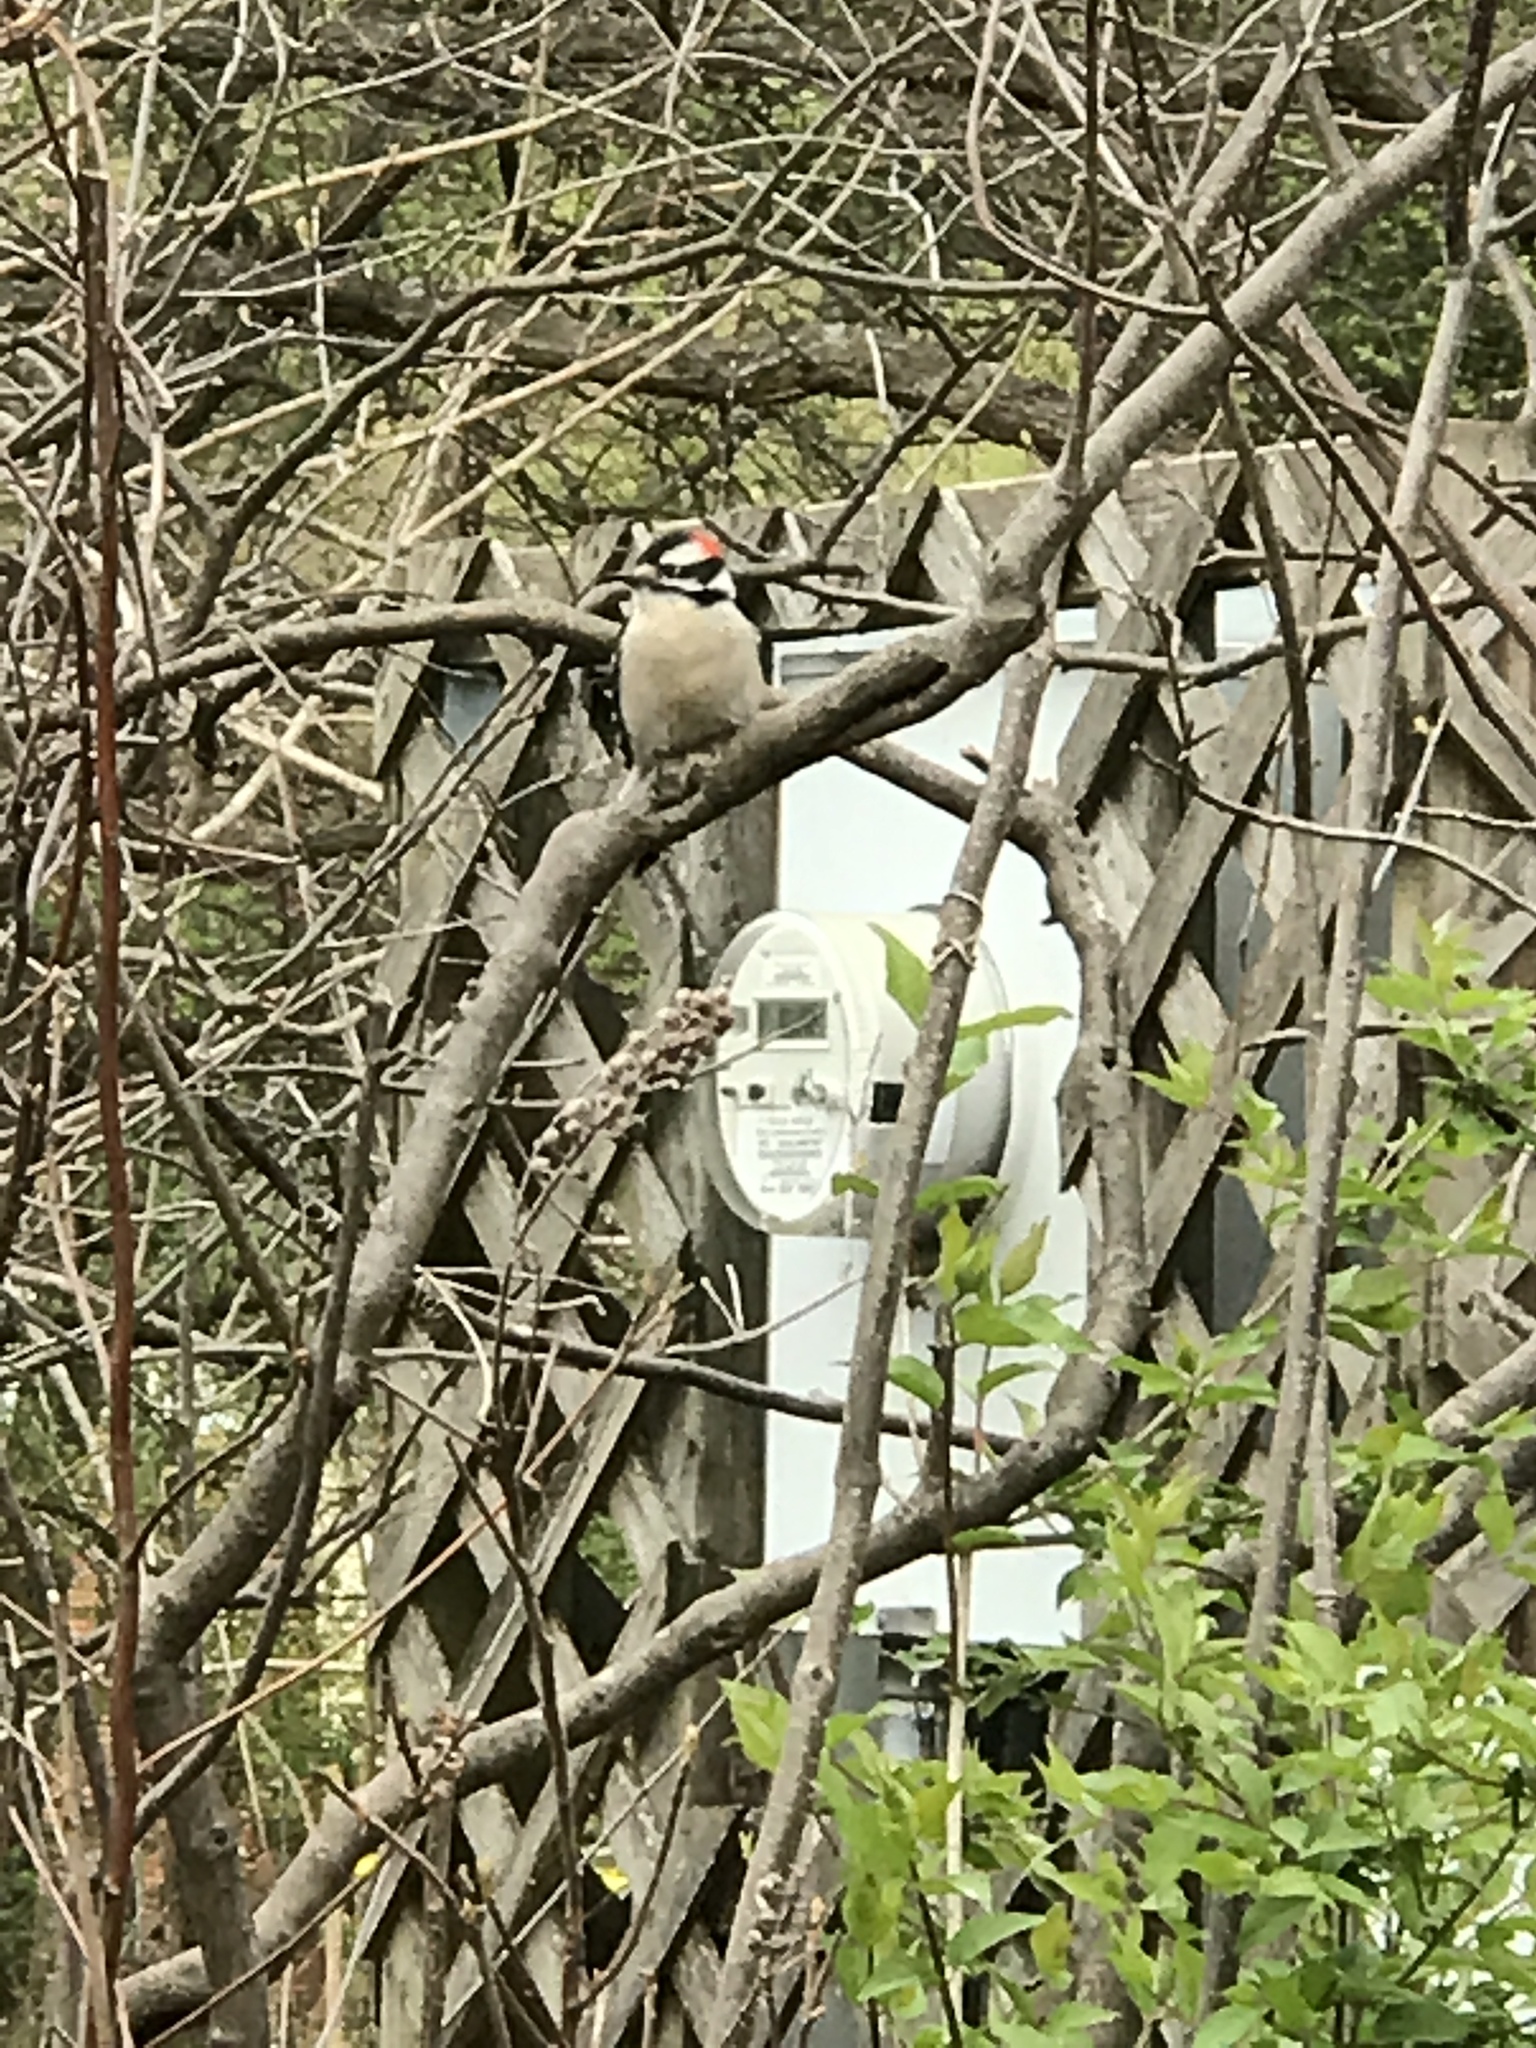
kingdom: Animalia
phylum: Chordata
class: Aves
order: Piciformes
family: Picidae
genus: Dryobates
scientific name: Dryobates pubescens
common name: Downy woodpecker
